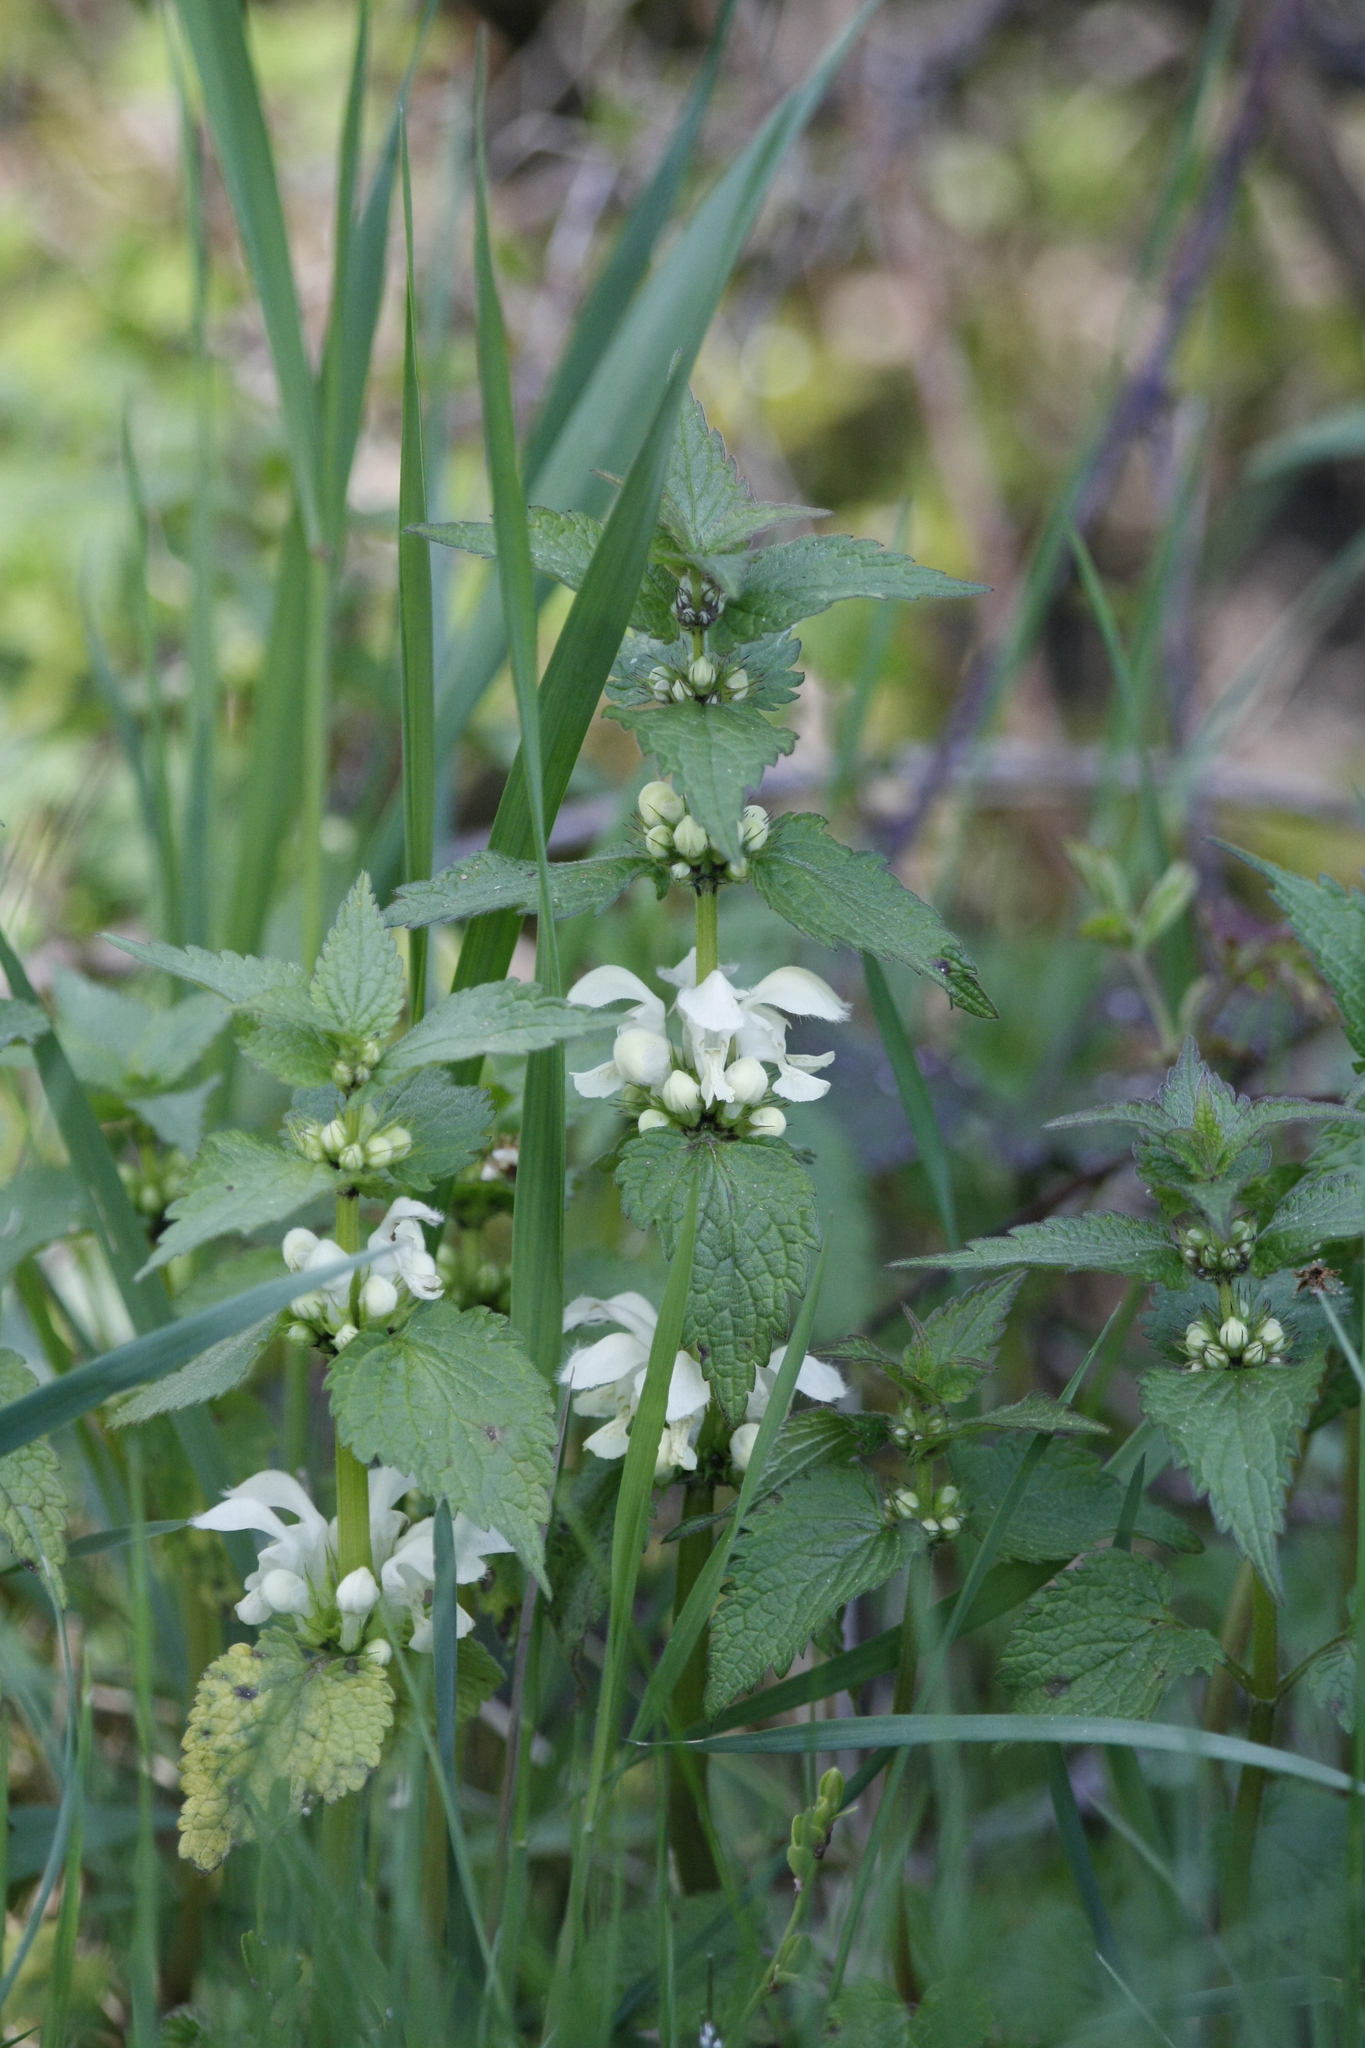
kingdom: Plantae
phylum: Tracheophyta
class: Magnoliopsida
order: Lamiales
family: Lamiaceae
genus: Lamium
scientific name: Lamium album
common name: White dead-nettle
